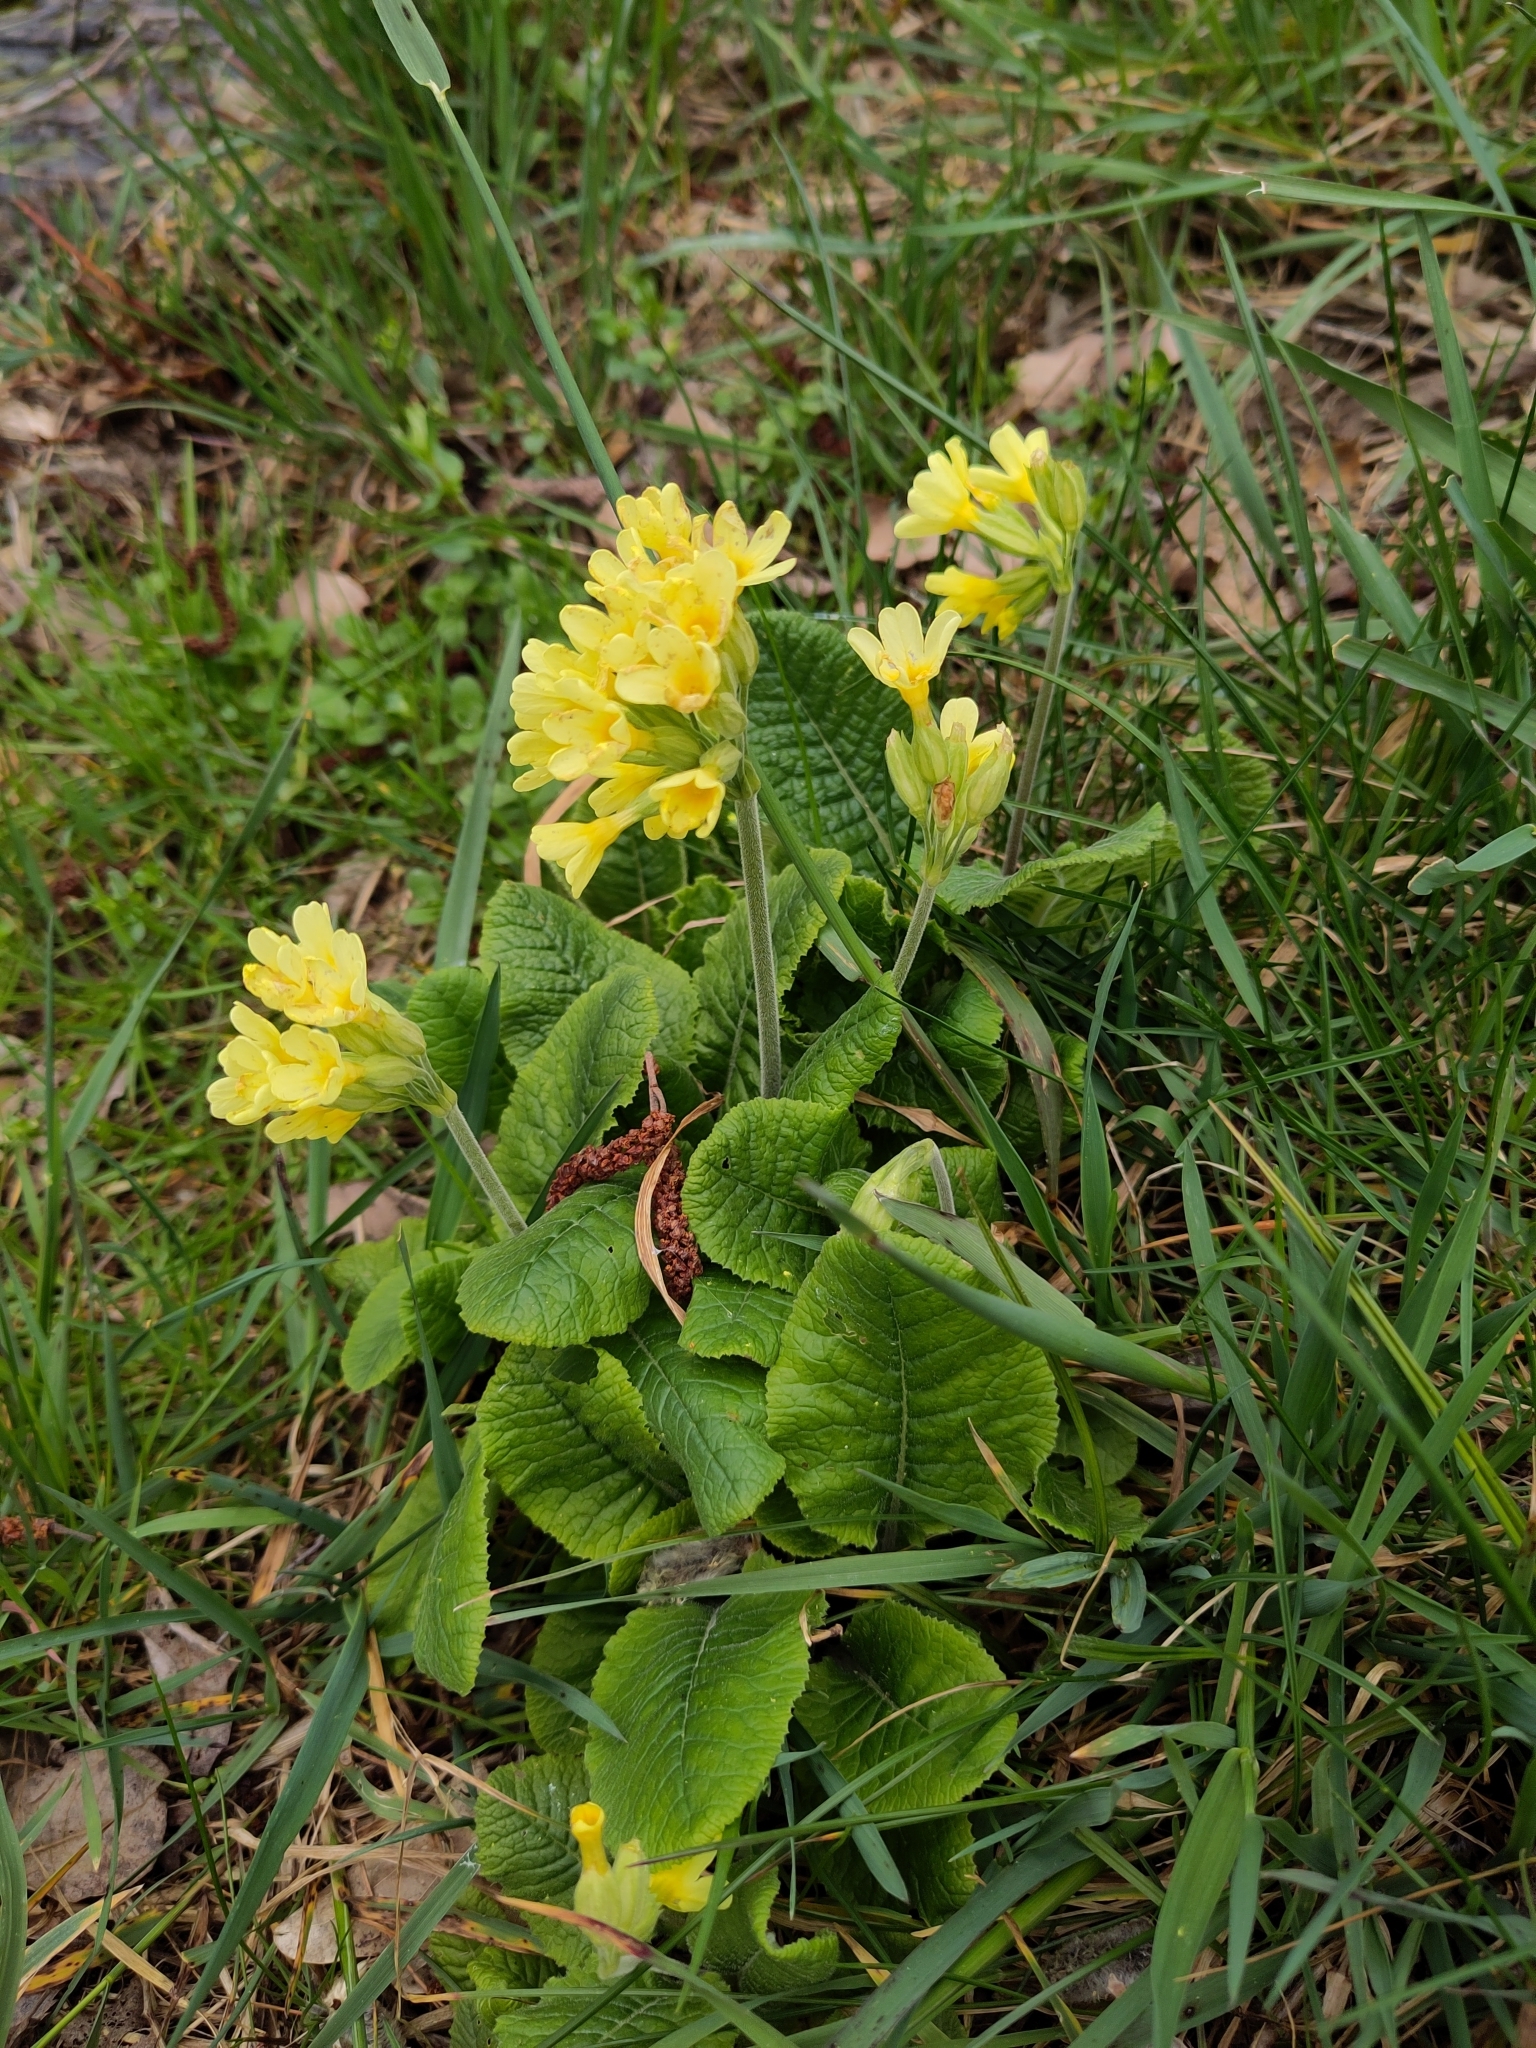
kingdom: Plantae
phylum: Tracheophyta
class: Magnoliopsida
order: Ericales
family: Primulaceae
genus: Primula
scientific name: Primula elatior
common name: Oxlip
